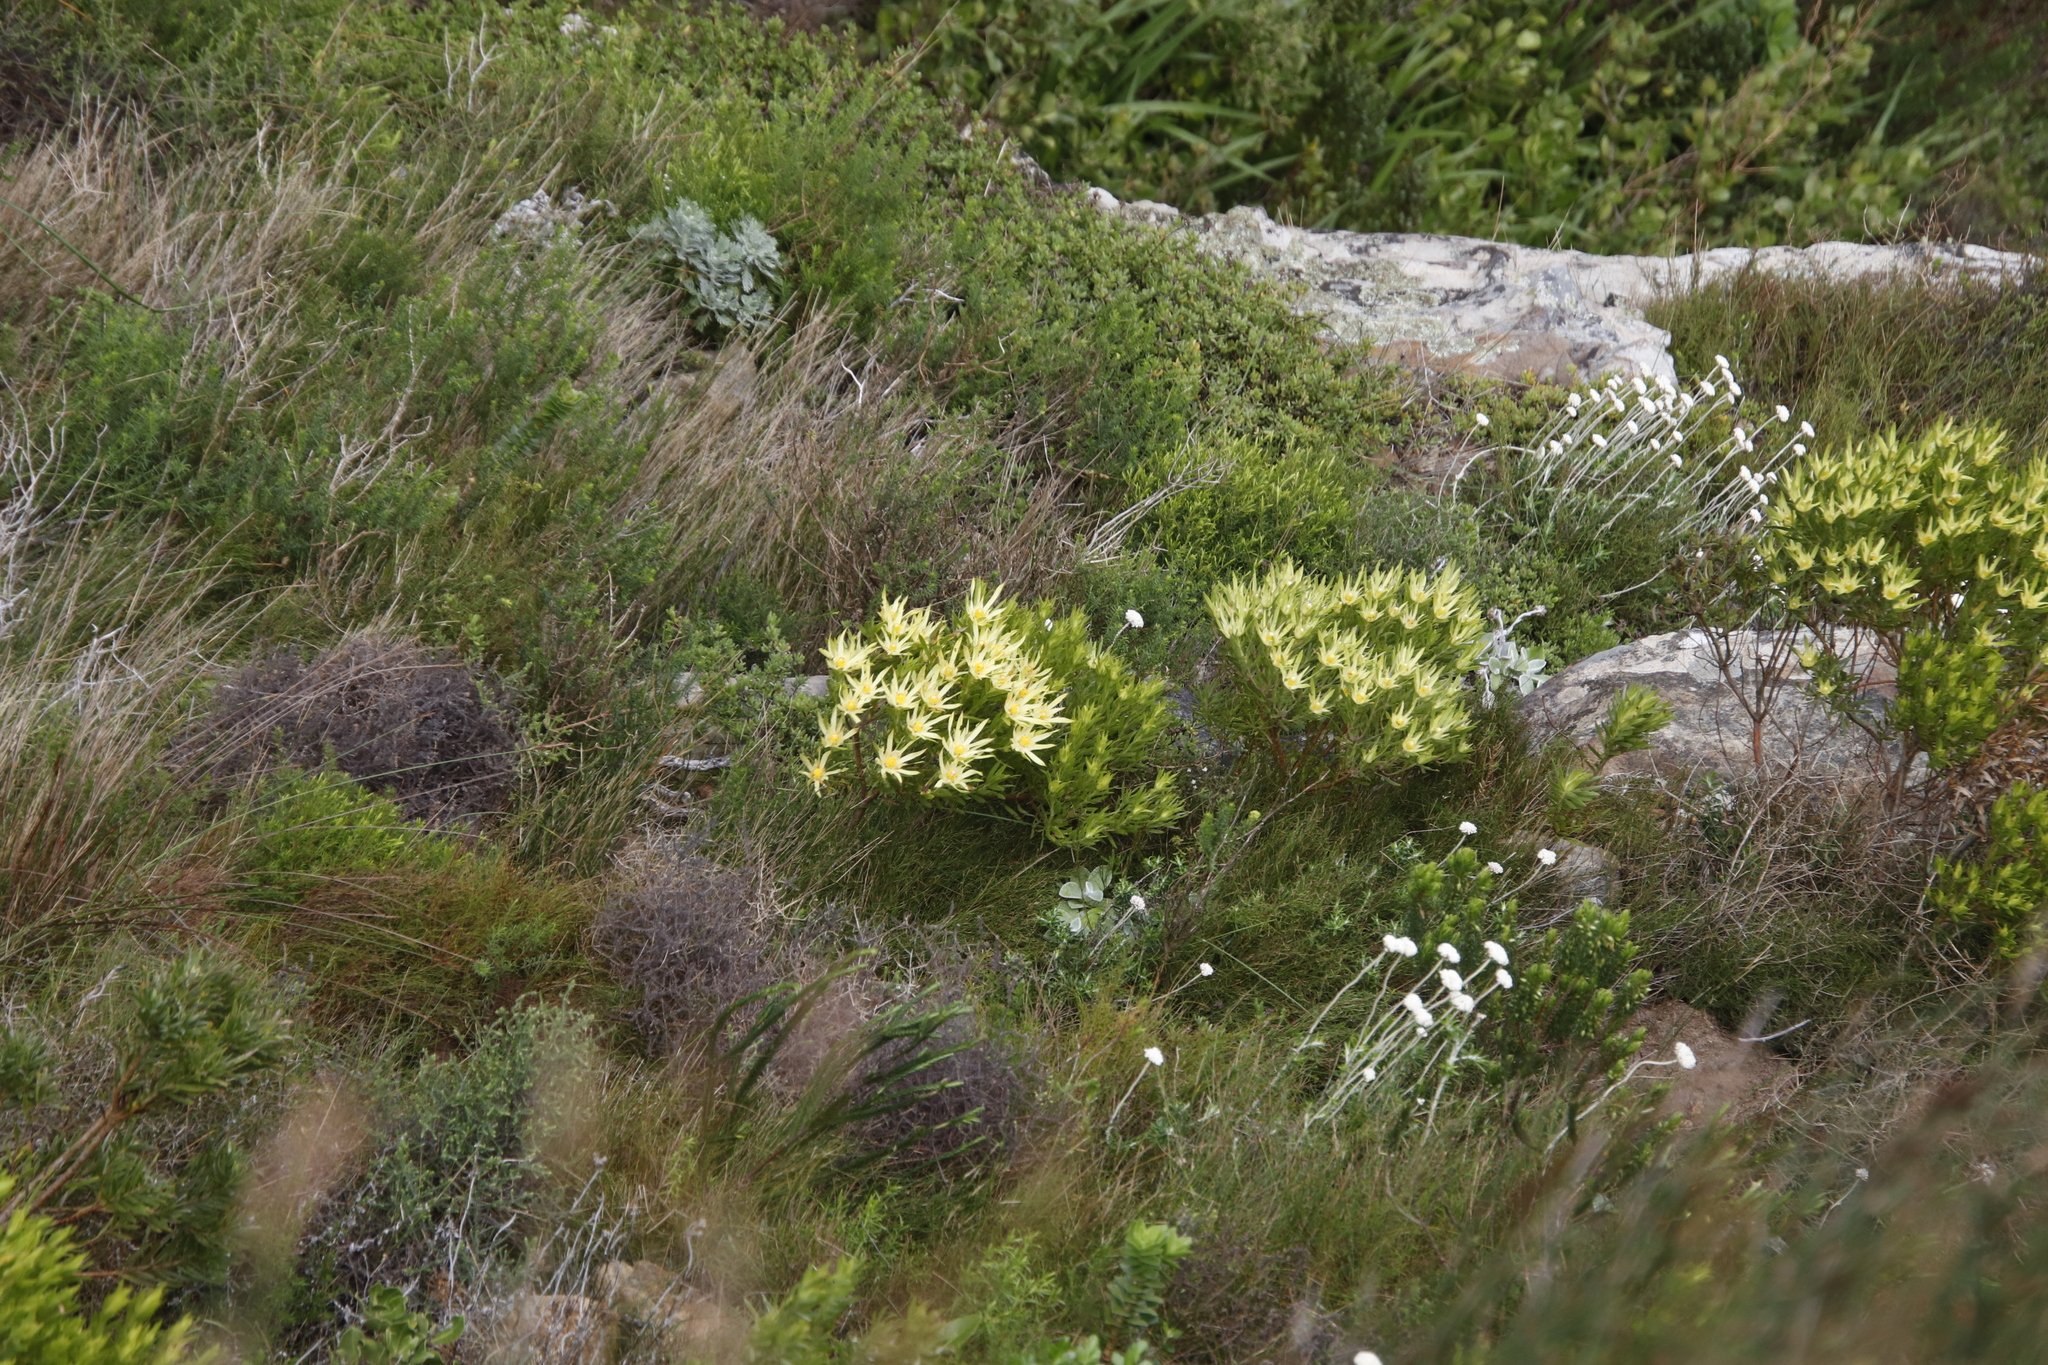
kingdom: Plantae
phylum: Tracheophyta
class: Magnoliopsida
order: Proteales
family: Proteaceae
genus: Leucadendron
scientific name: Leucadendron xanthoconus
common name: Sickle-leaf conebush
